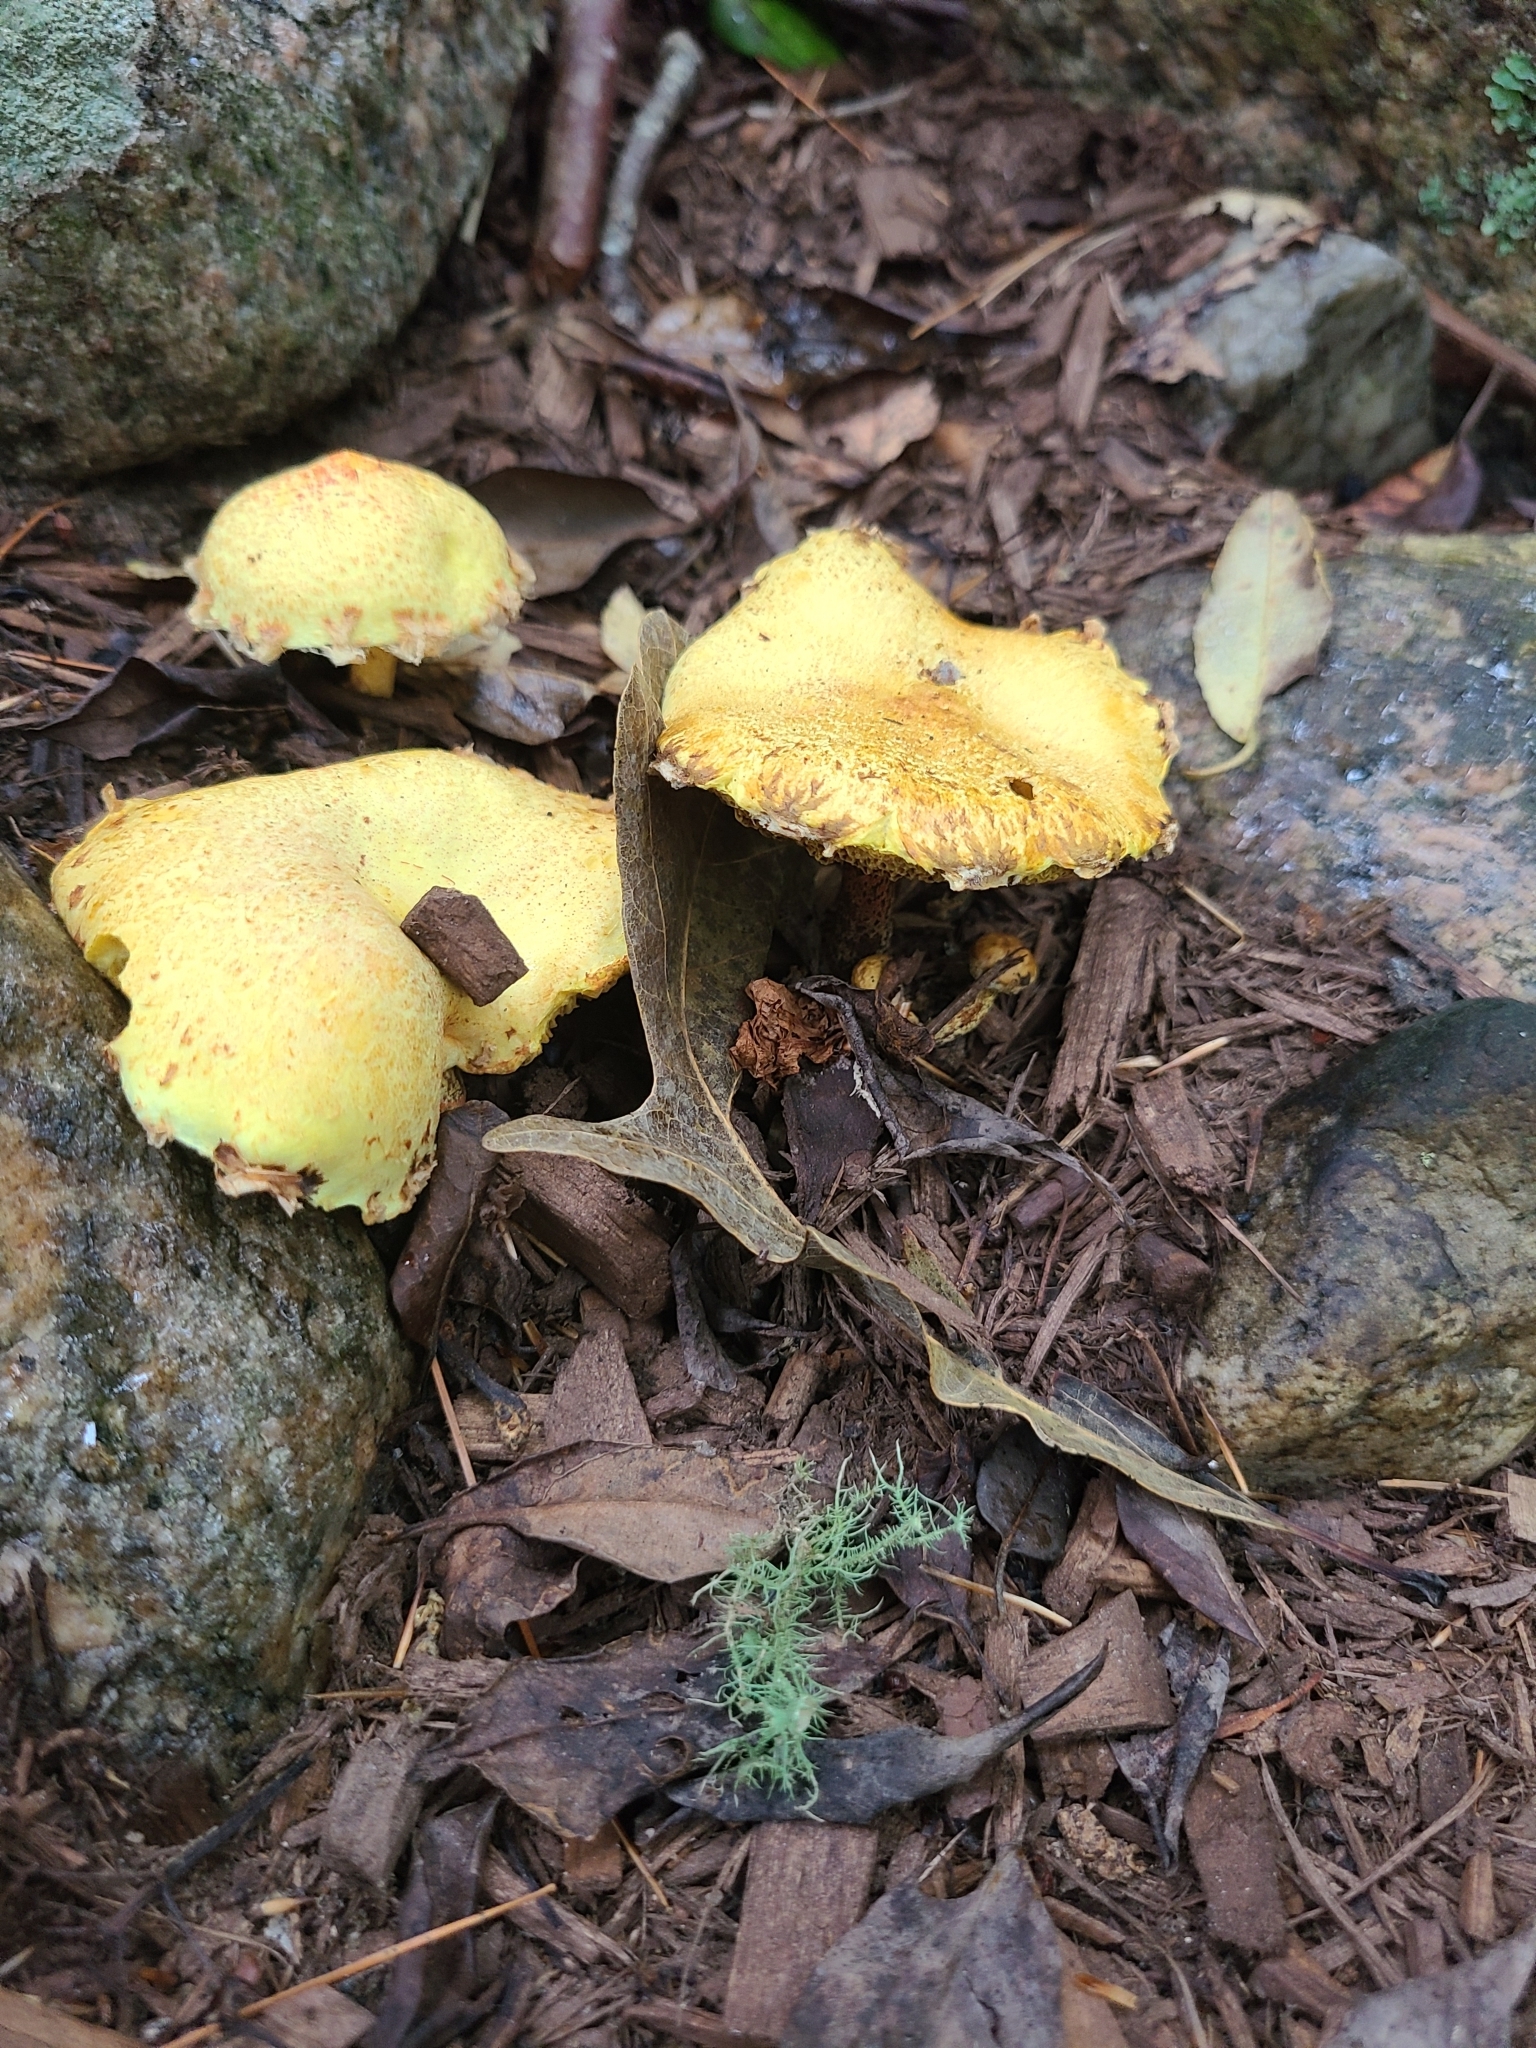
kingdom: Fungi
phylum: Basidiomycota
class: Agaricomycetes
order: Boletales
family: Suillaceae
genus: Suillus
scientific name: Suillus americanus
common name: Chicken fat mushroom
